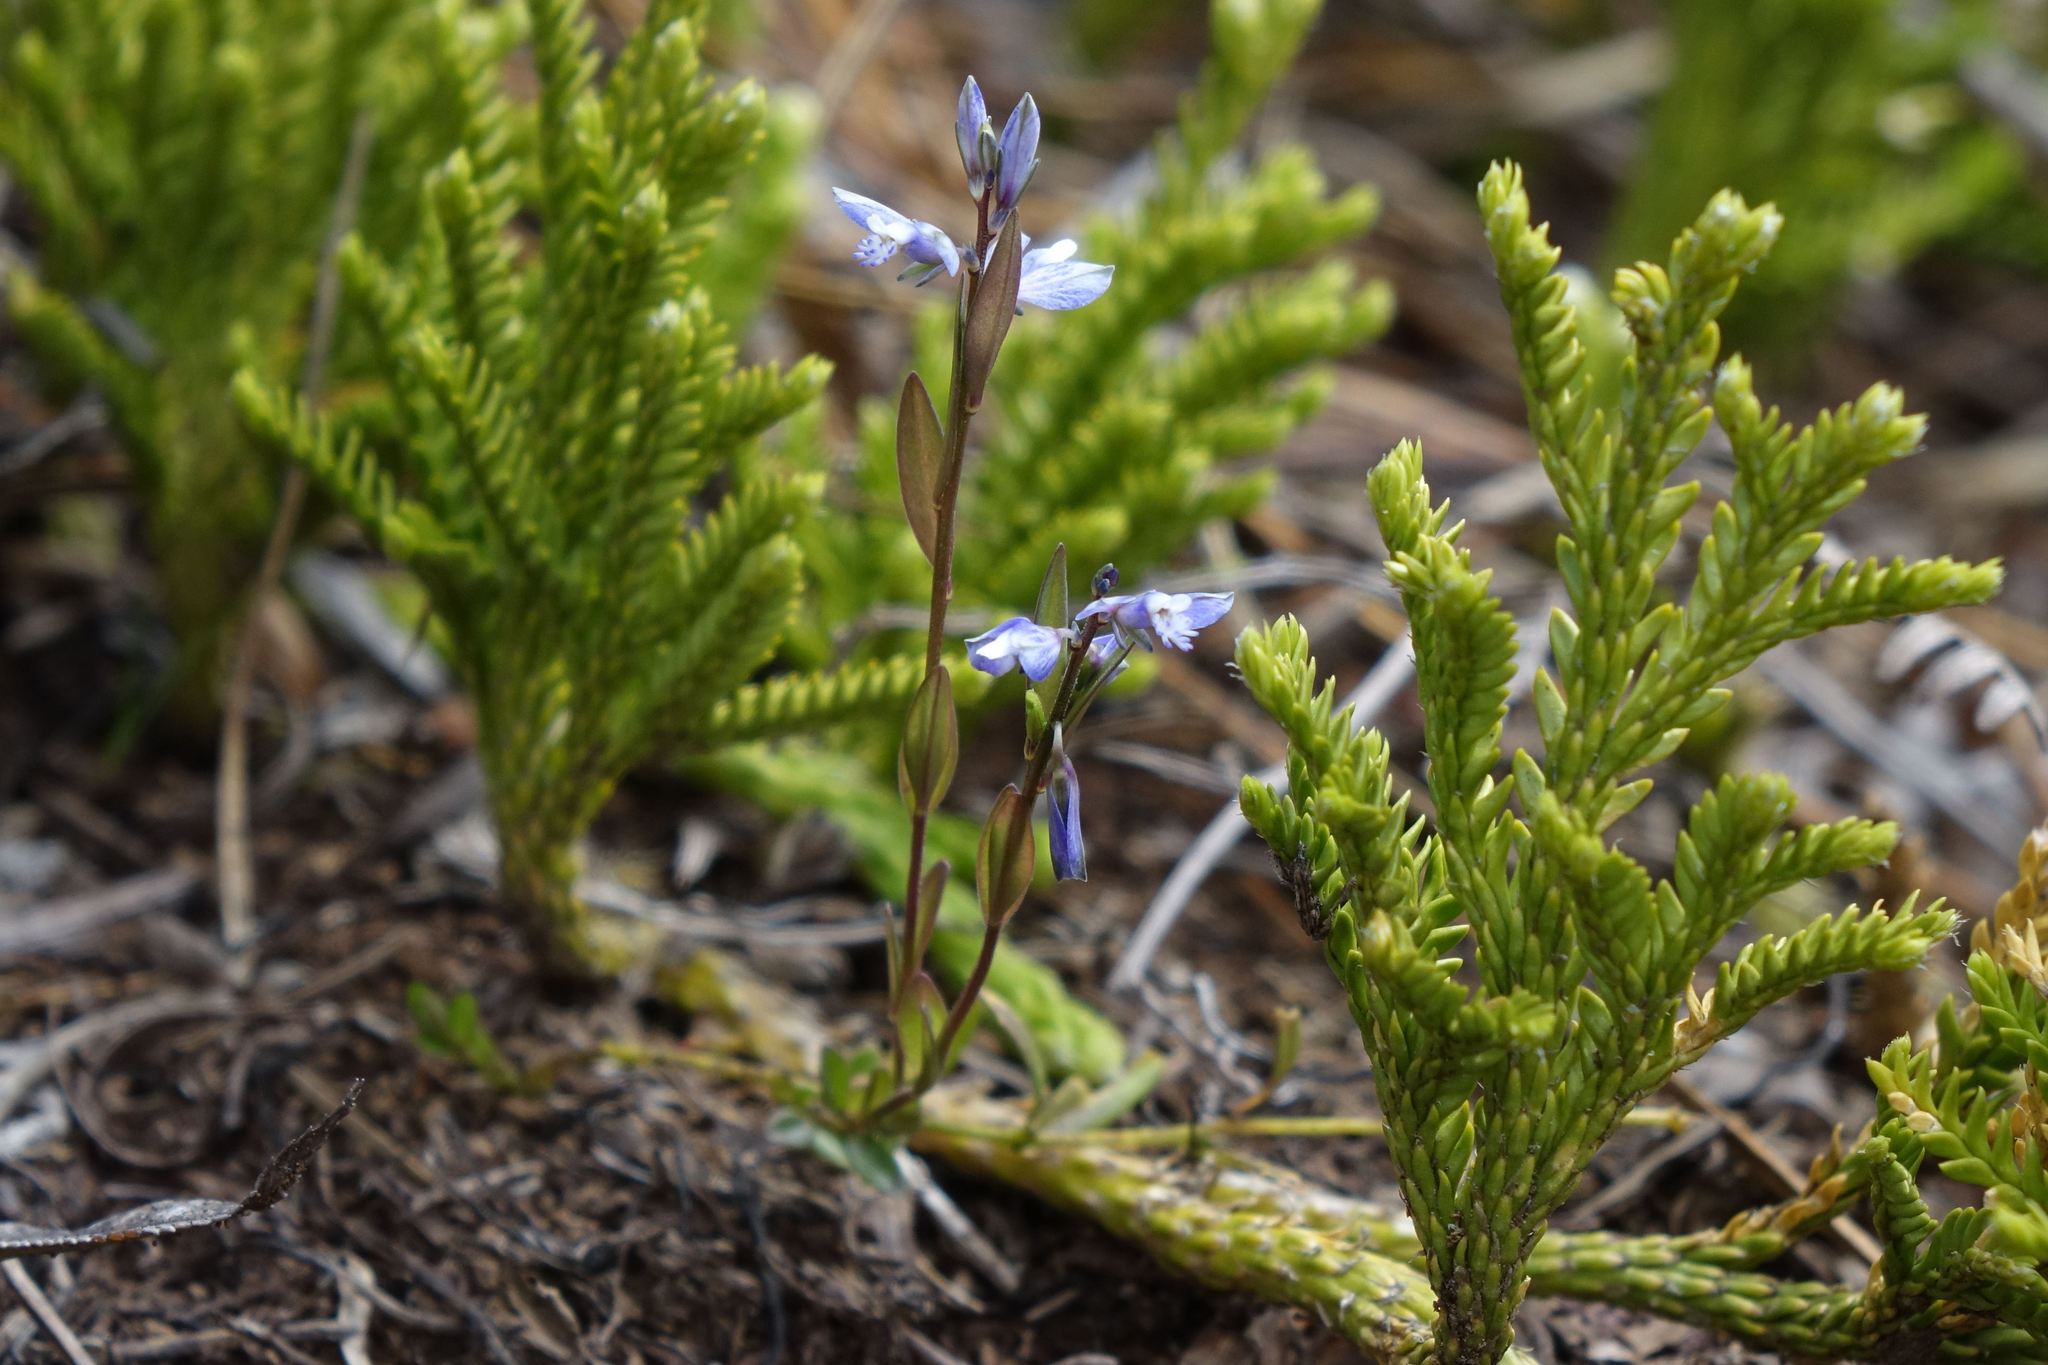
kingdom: Plantae
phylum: Tracheophyta
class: Magnoliopsida
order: Fabales
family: Polygalaceae
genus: Polygala
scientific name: Polygala serpyllifolia
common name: Heath milkwort
